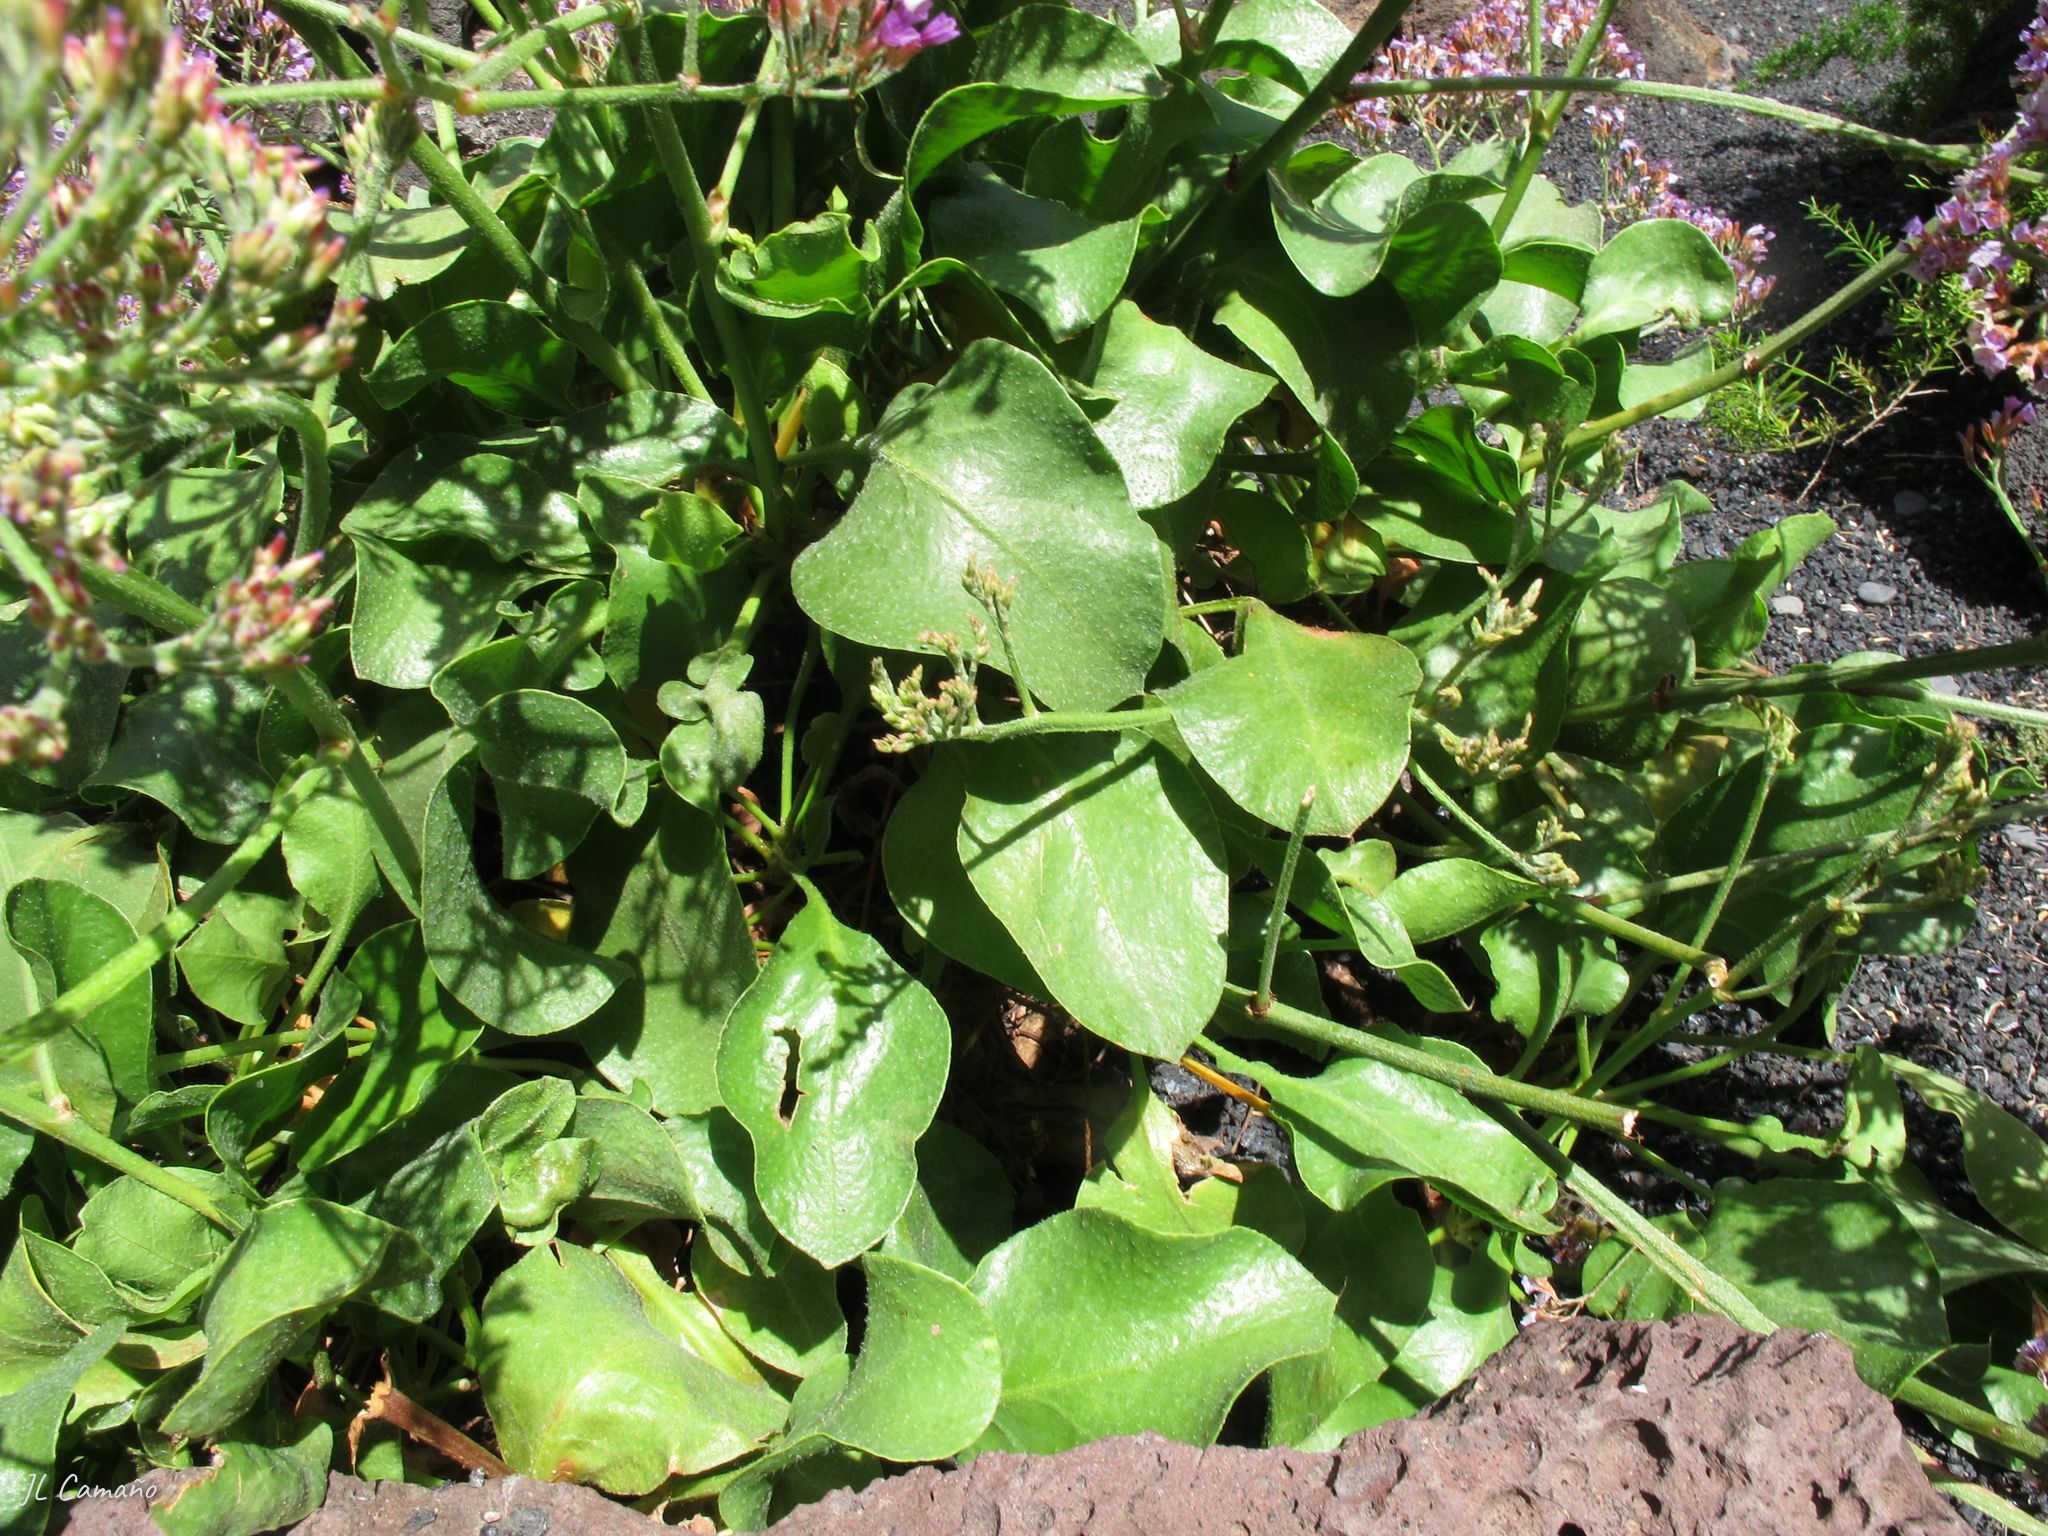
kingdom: Plantae
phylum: Tracheophyta
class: Magnoliopsida
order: Caryophyllales
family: Plumbaginaceae
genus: Limonium
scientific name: Limonium bourgeaui
